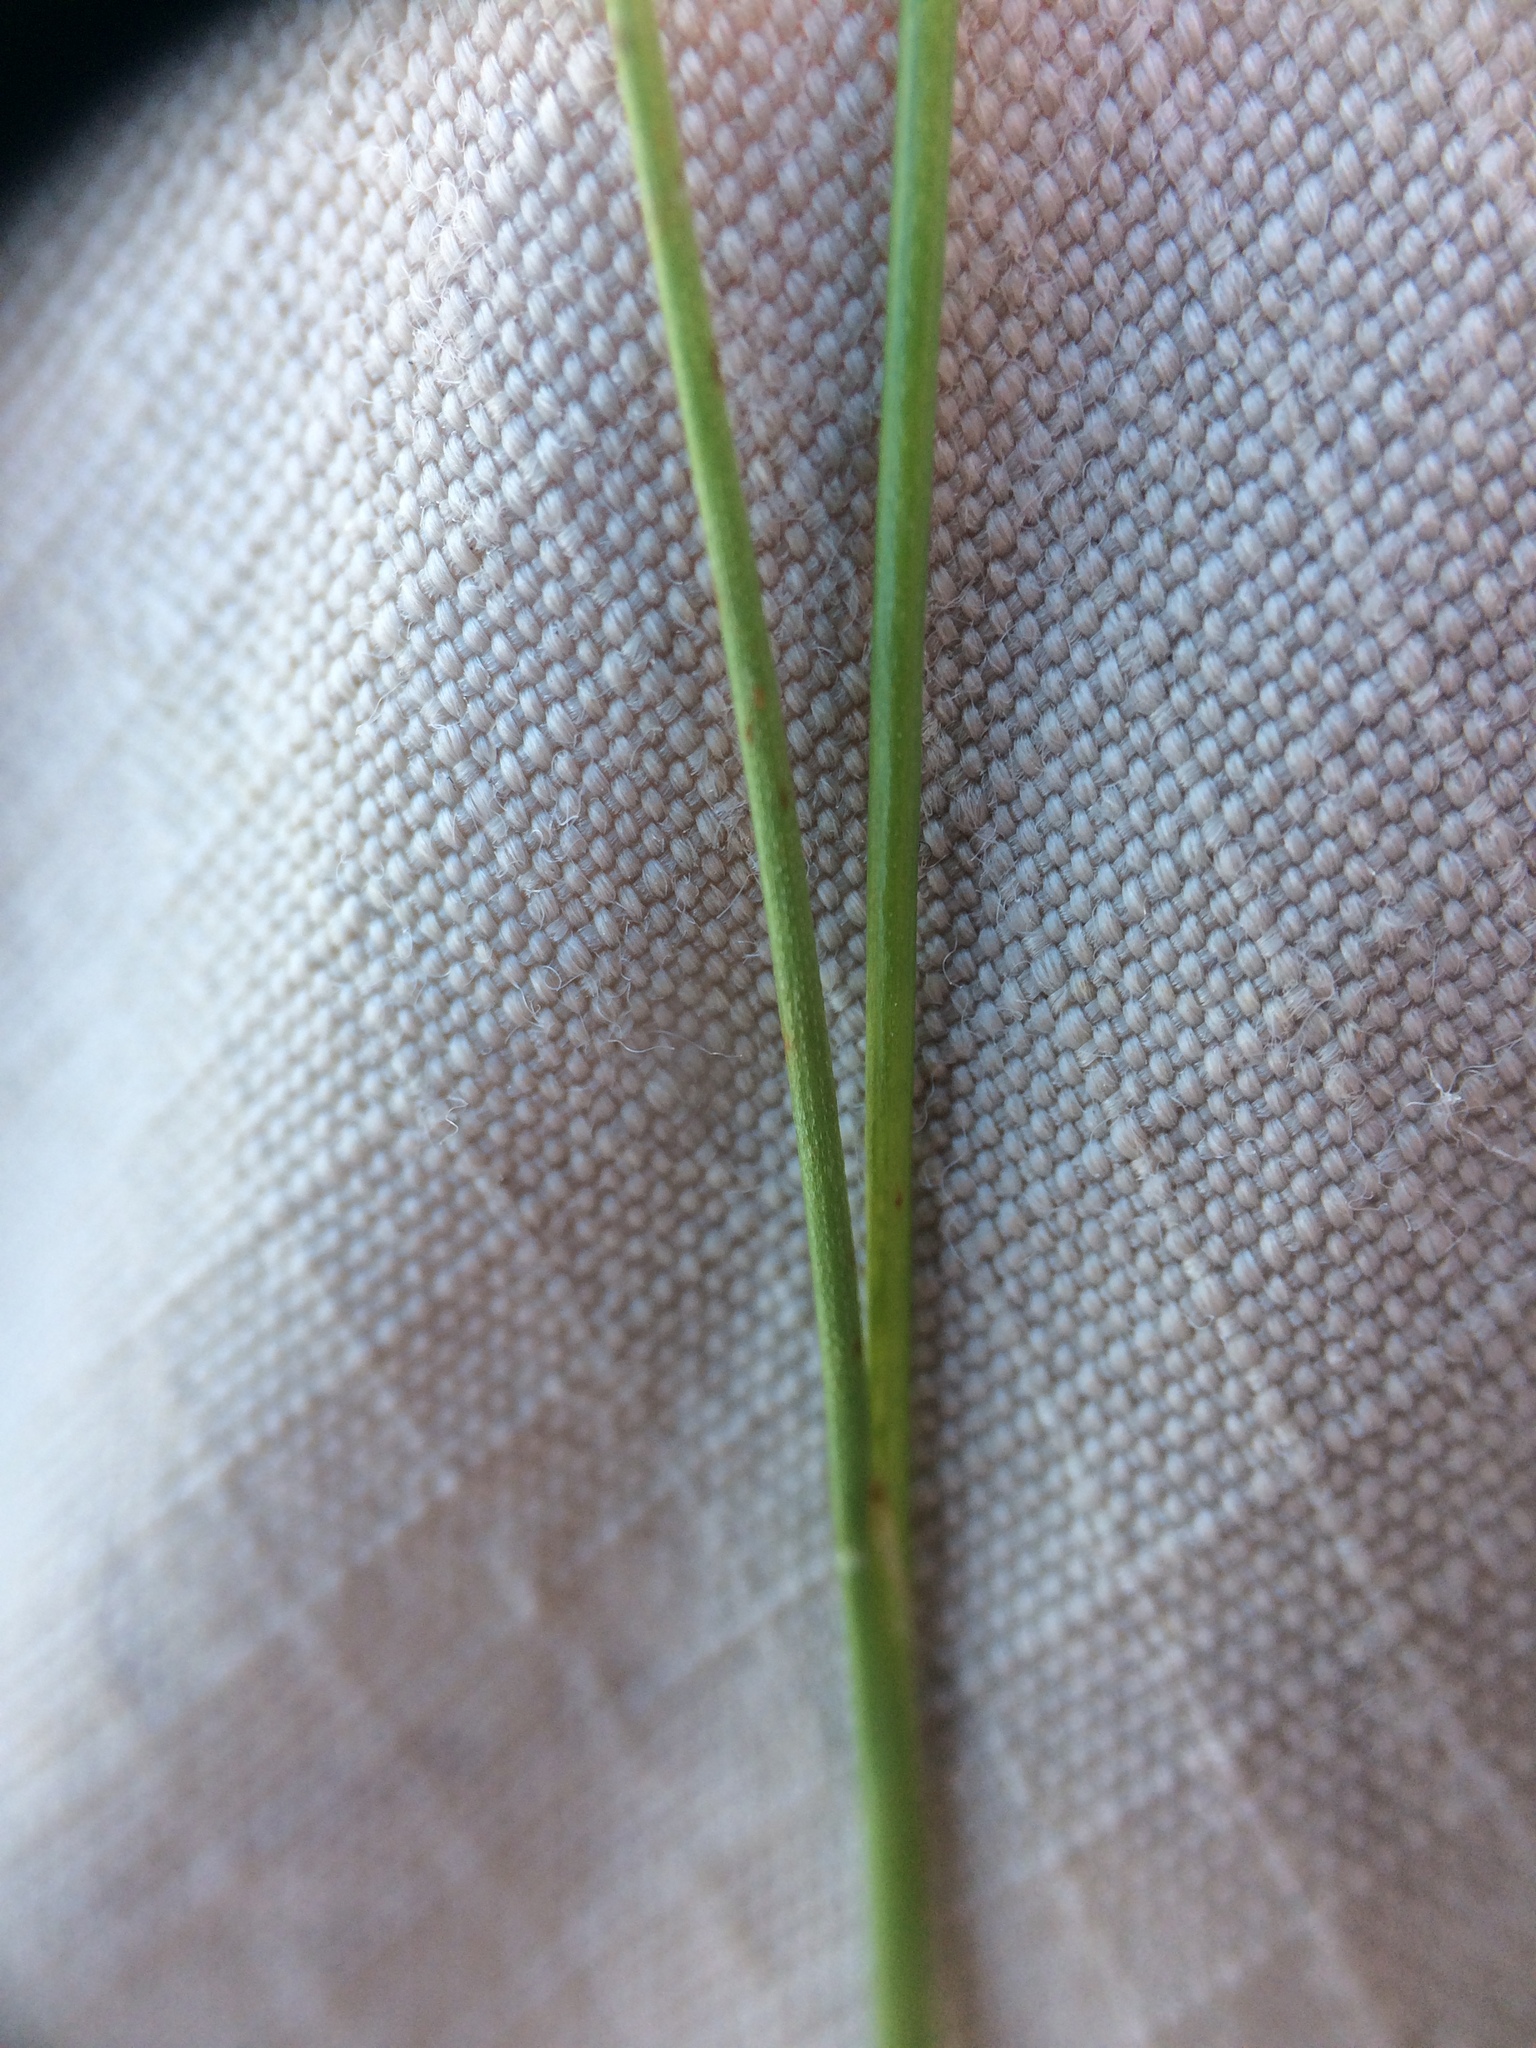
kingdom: Plantae
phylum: Tracheophyta
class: Liliopsida
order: Poales
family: Juncaceae
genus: Juncus
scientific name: Juncus tweedyi
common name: Narrow-panicled rush
